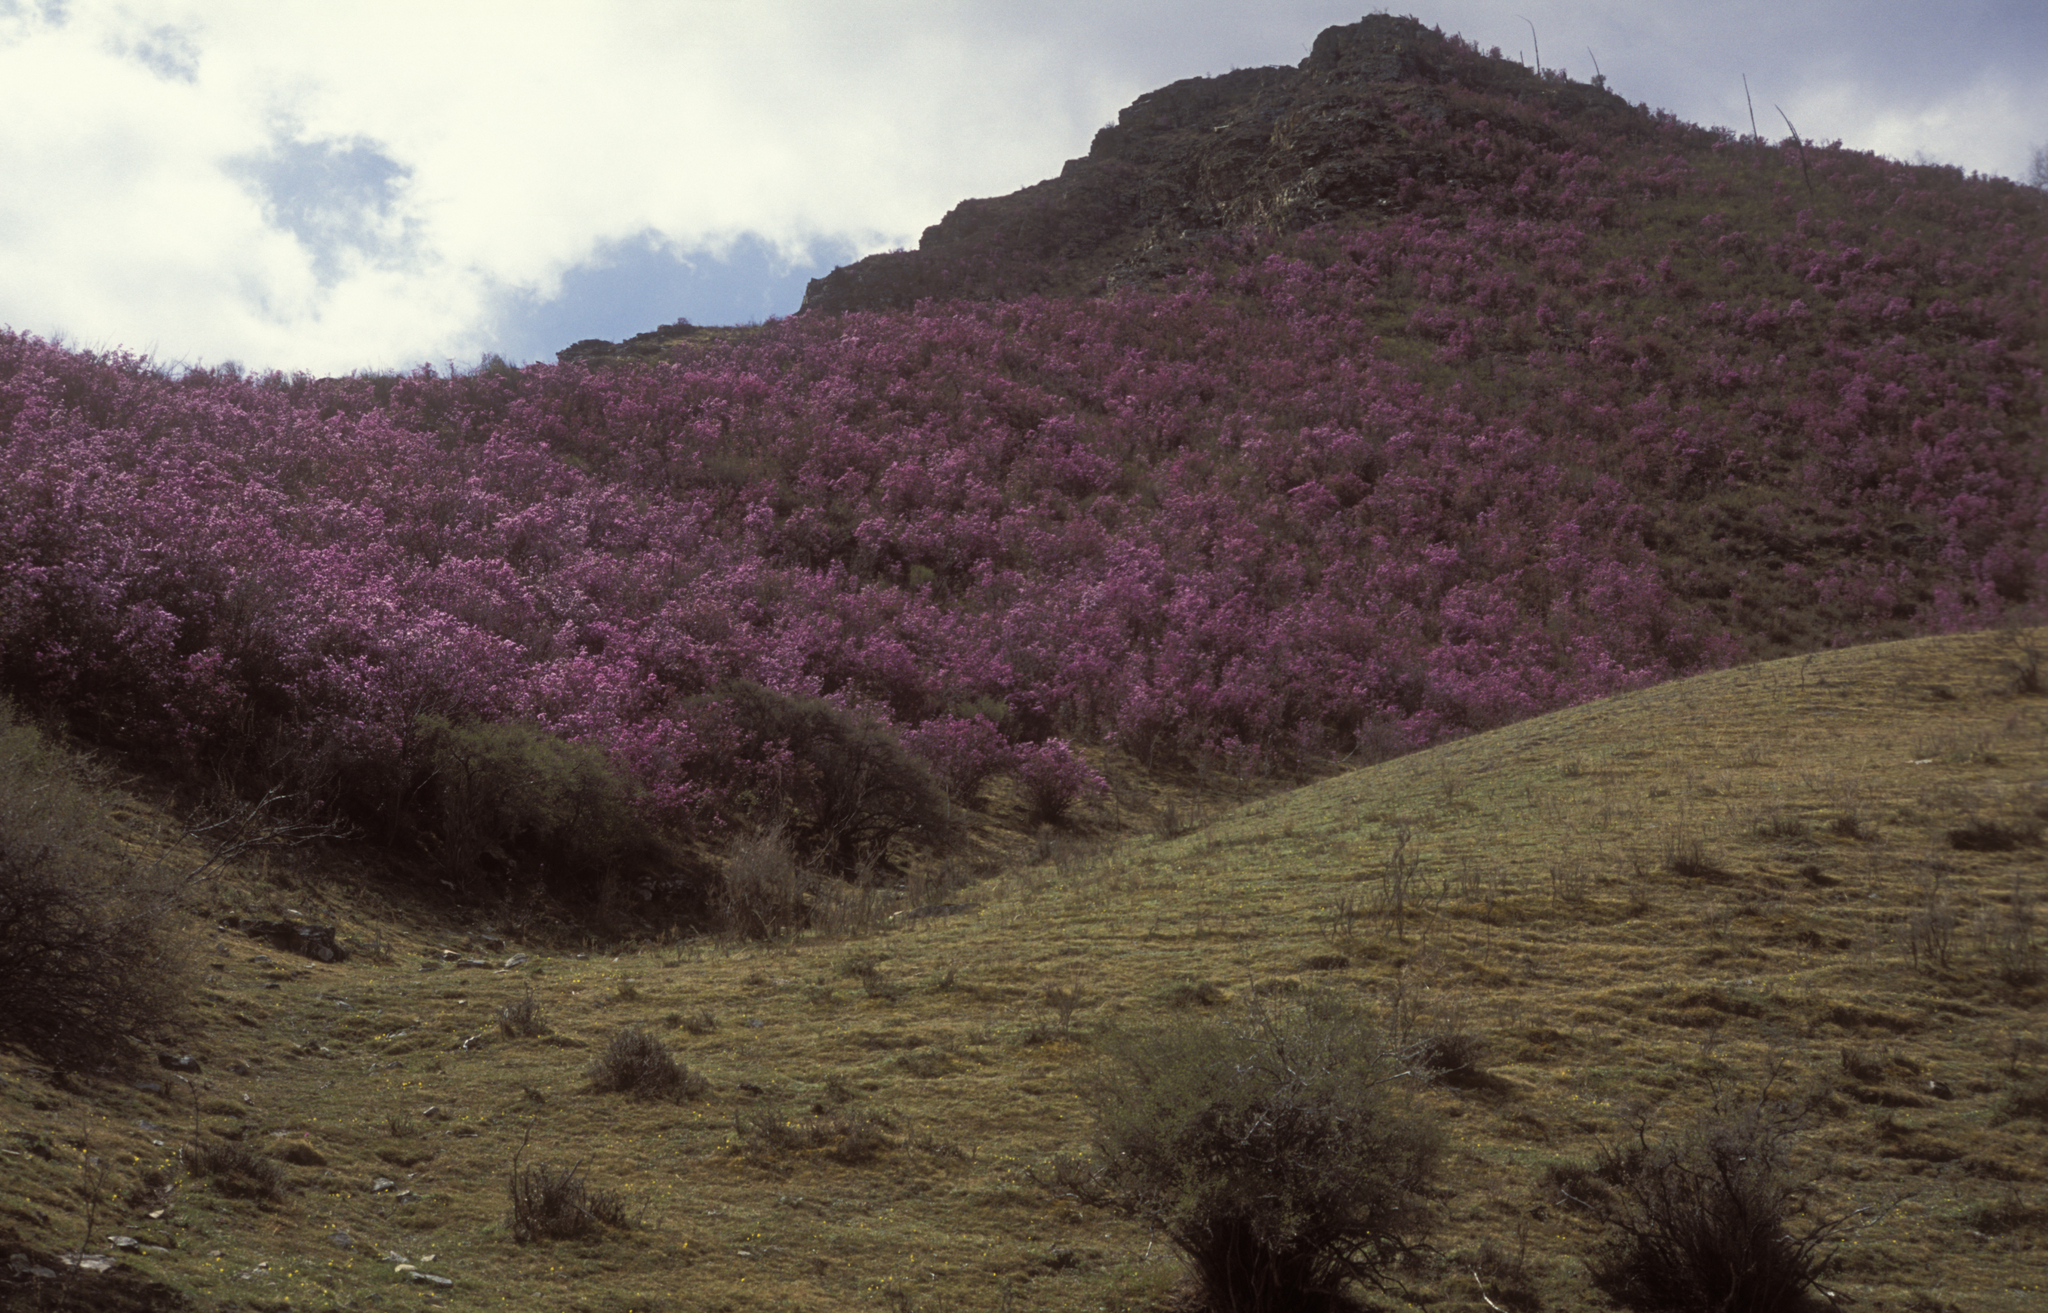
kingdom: Plantae
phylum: Tracheophyta
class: Magnoliopsida
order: Ericales
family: Ericaceae
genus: Rhododendron
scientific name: Rhododendron dauricum
